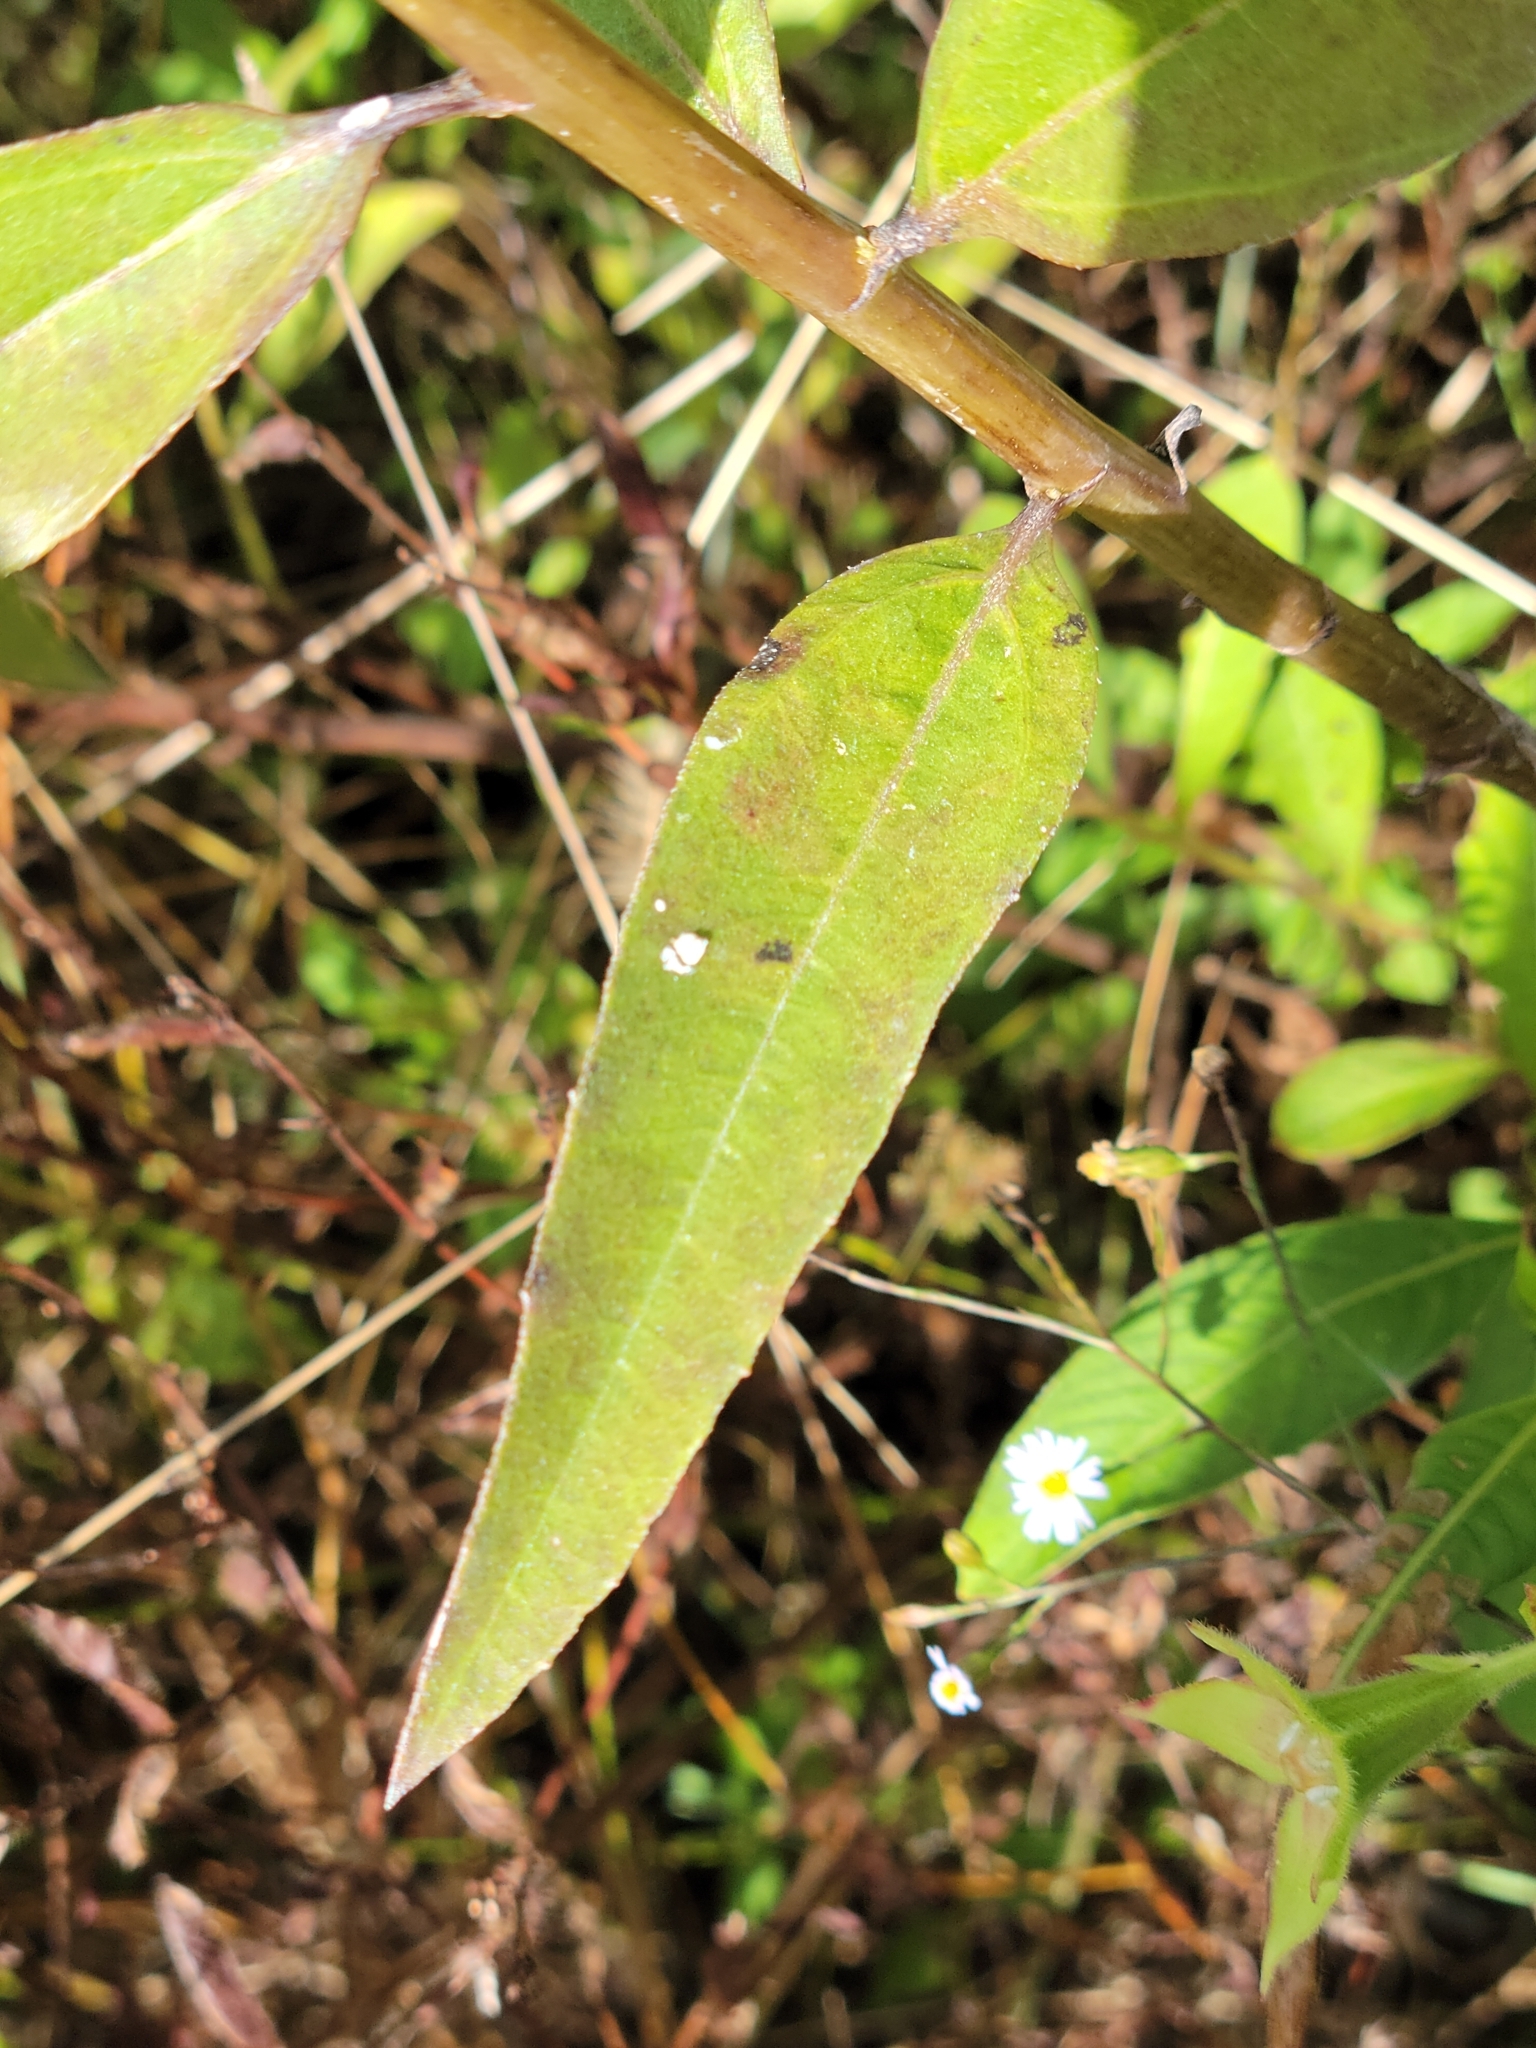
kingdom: Plantae
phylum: Tracheophyta
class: Magnoliopsida
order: Asterales
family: Asteraceae
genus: Helianthus
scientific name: Helianthus agrestis
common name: Rural sunflower
